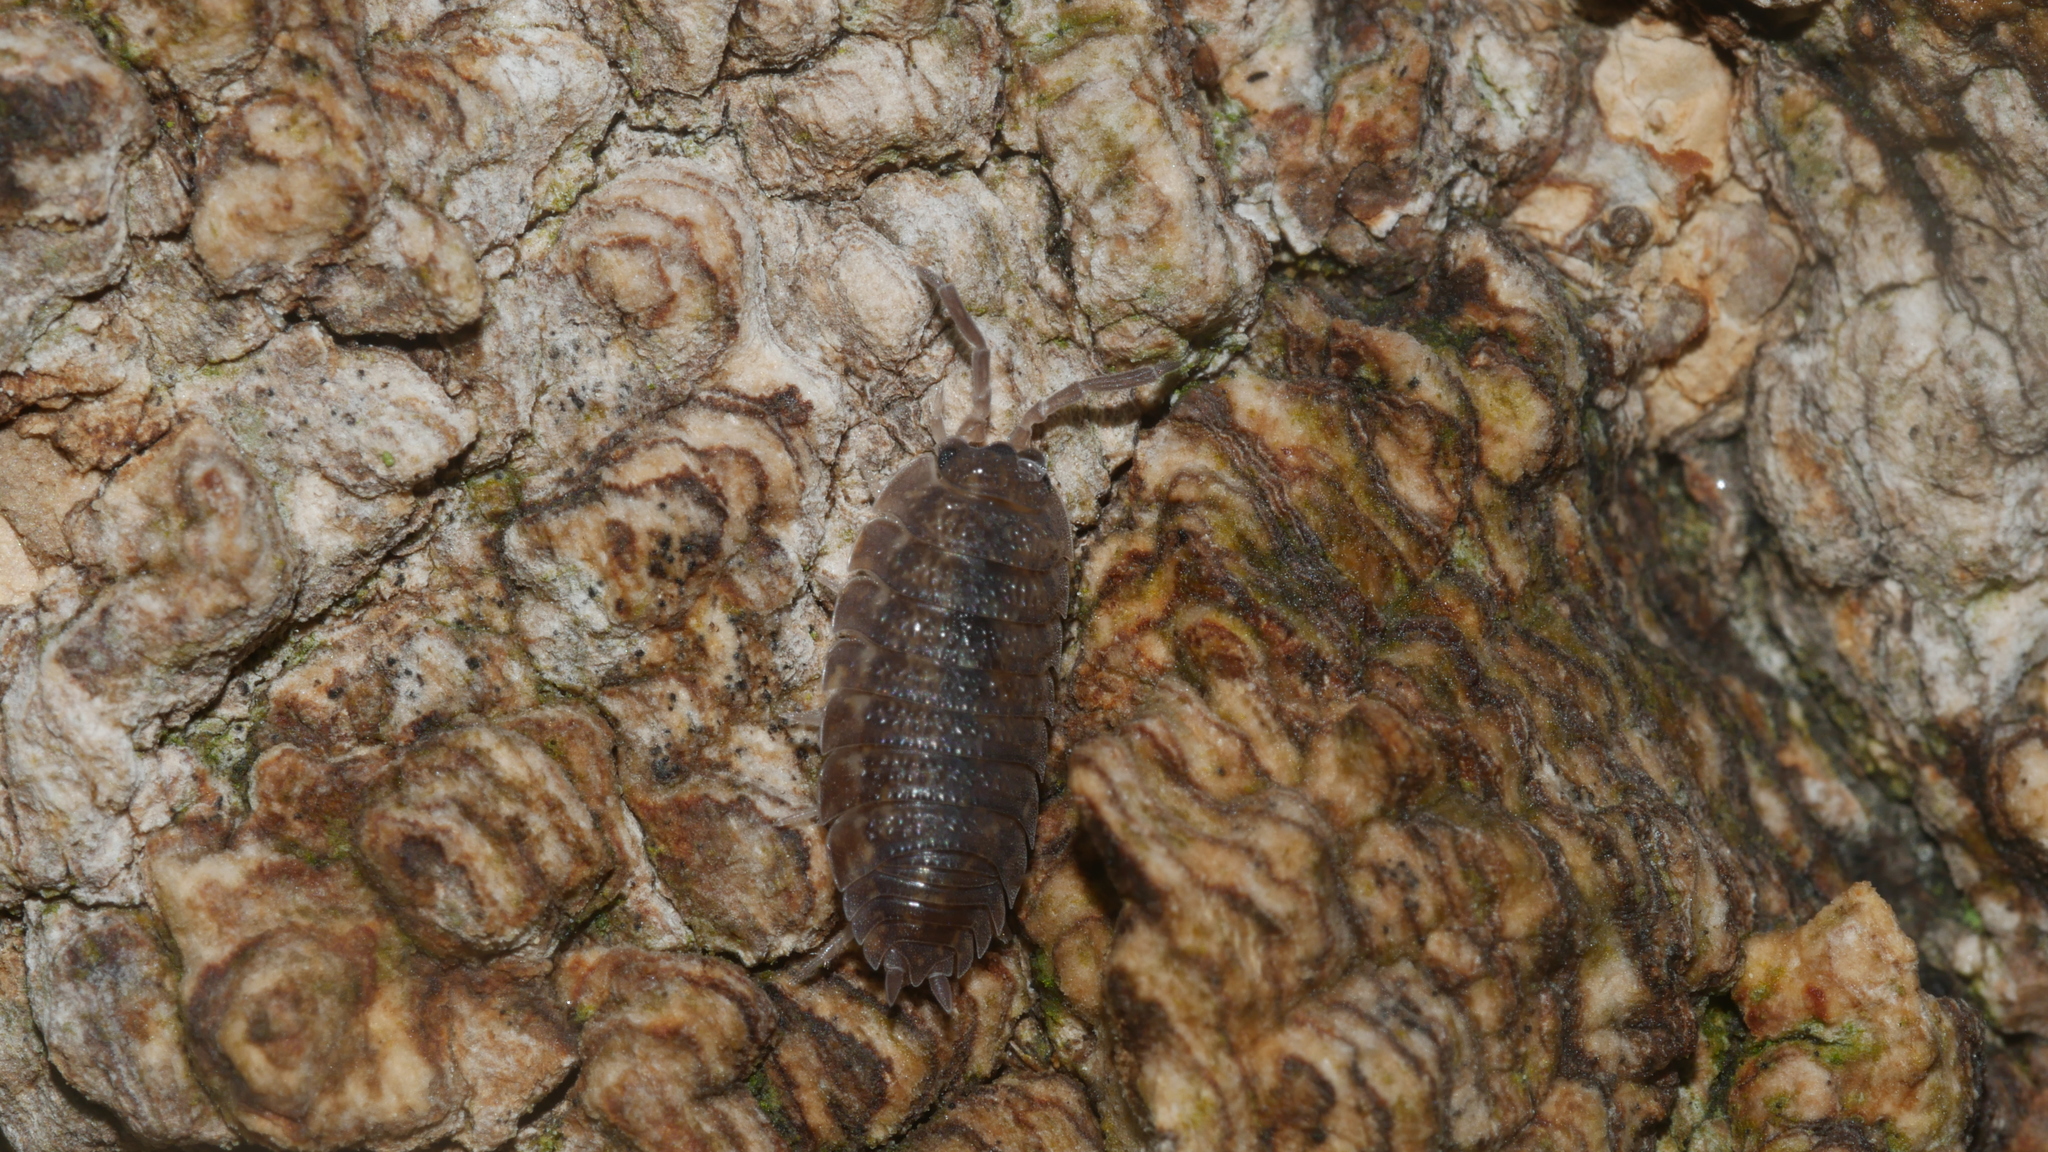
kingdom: Animalia
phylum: Arthropoda
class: Malacostraca
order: Isopoda
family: Porcellionidae
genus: Porcellio
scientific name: Porcellio scaber
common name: Common rough woodlouse
